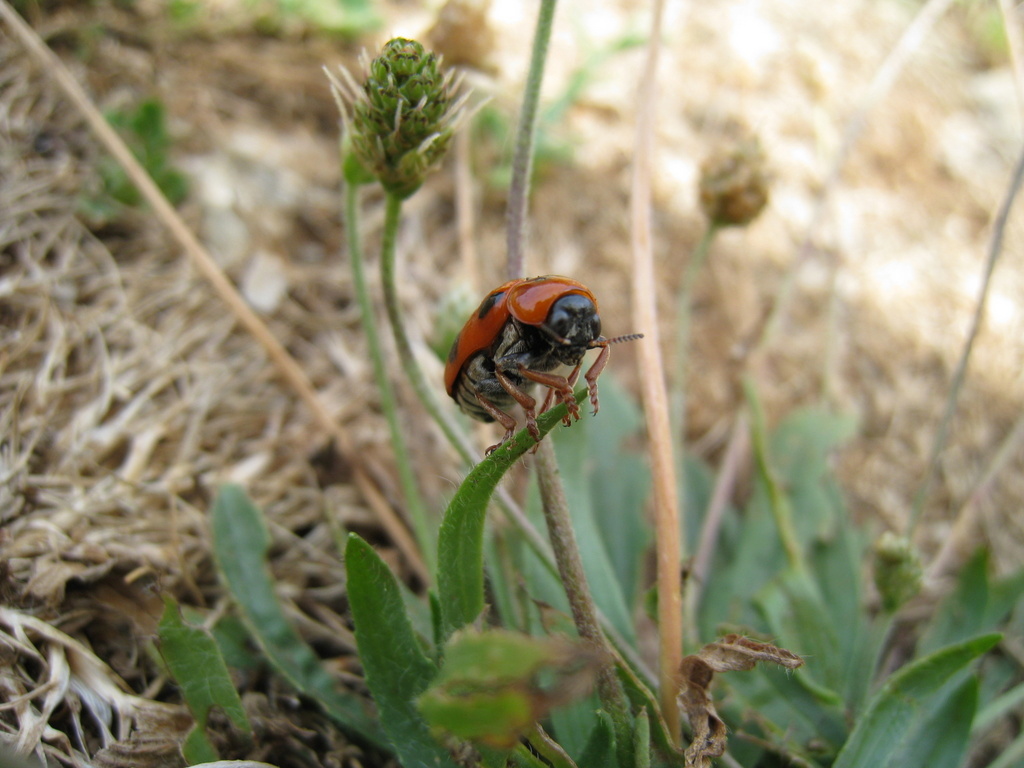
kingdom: Animalia
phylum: Arthropoda
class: Insecta
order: Coleoptera
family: Chrysomelidae
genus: Clytra
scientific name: Clytra atraphaxidis
